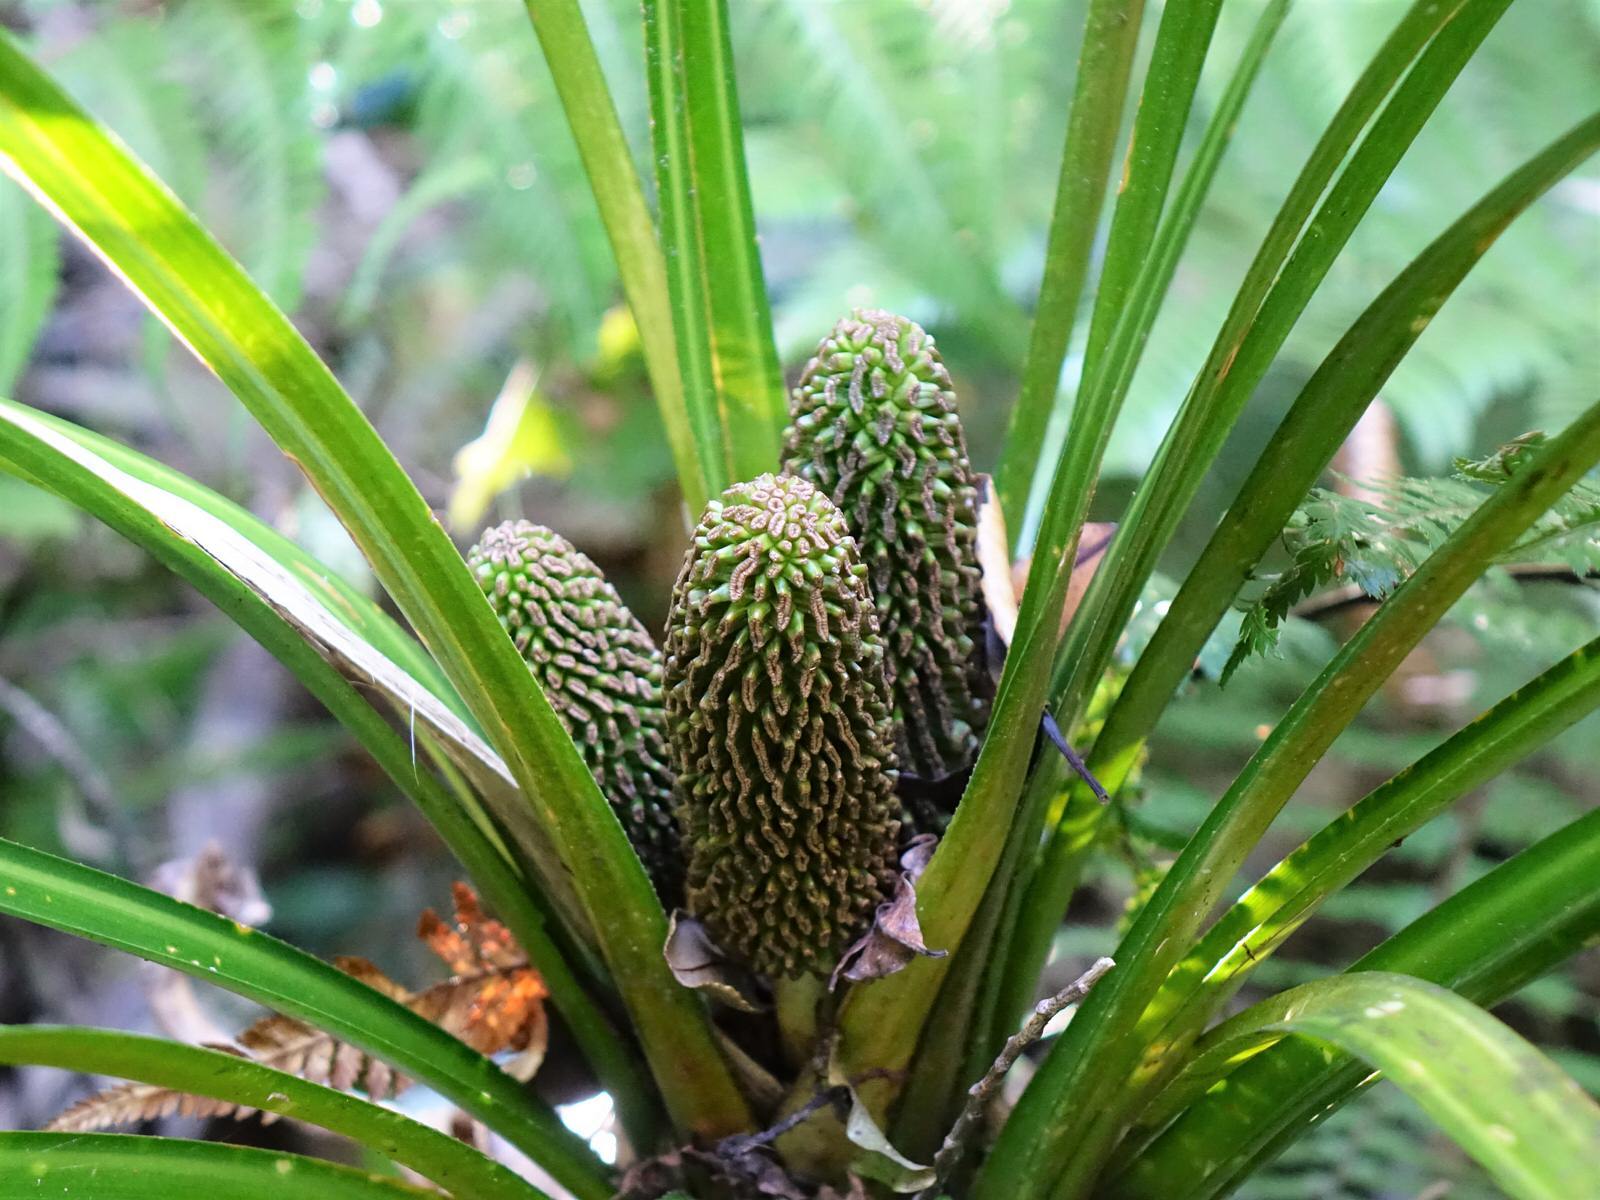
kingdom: Plantae
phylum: Tracheophyta
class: Liliopsida
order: Pandanales
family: Pandanaceae
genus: Freycinetia
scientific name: Freycinetia banksii
